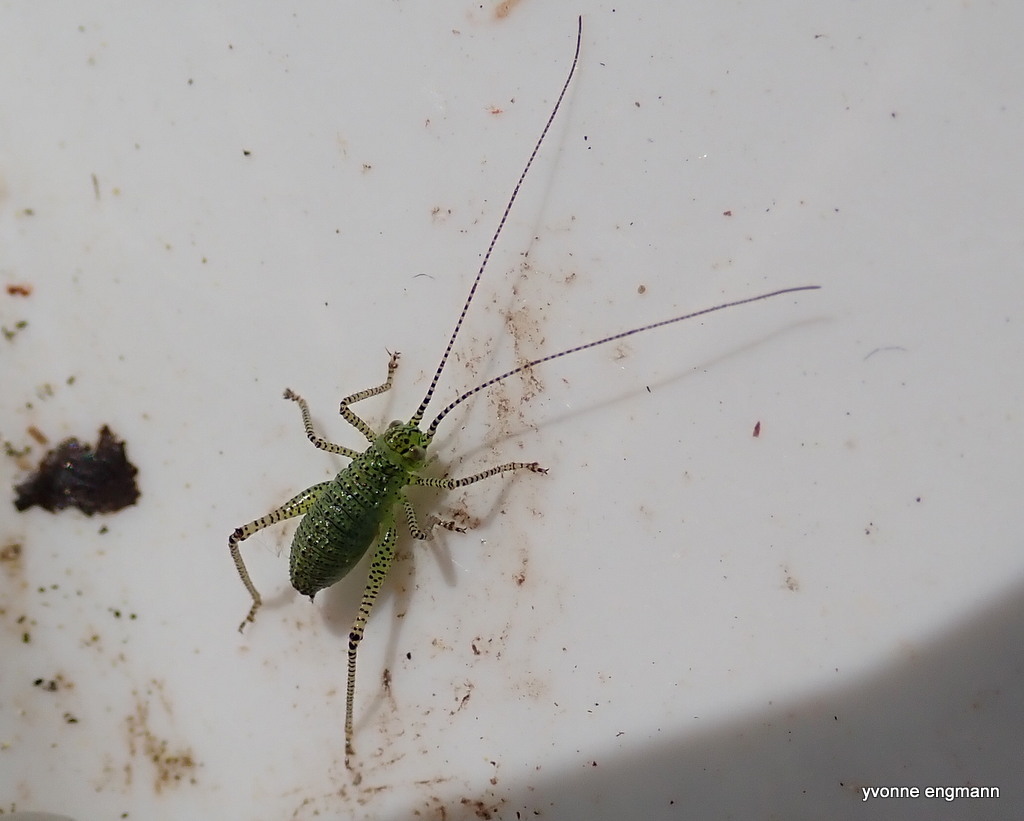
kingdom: Animalia
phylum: Arthropoda
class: Insecta
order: Orthoptera
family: Tettigoniidae
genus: Leptophyes
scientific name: Leptophyes punctatissima
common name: Speckled bush-cricket
